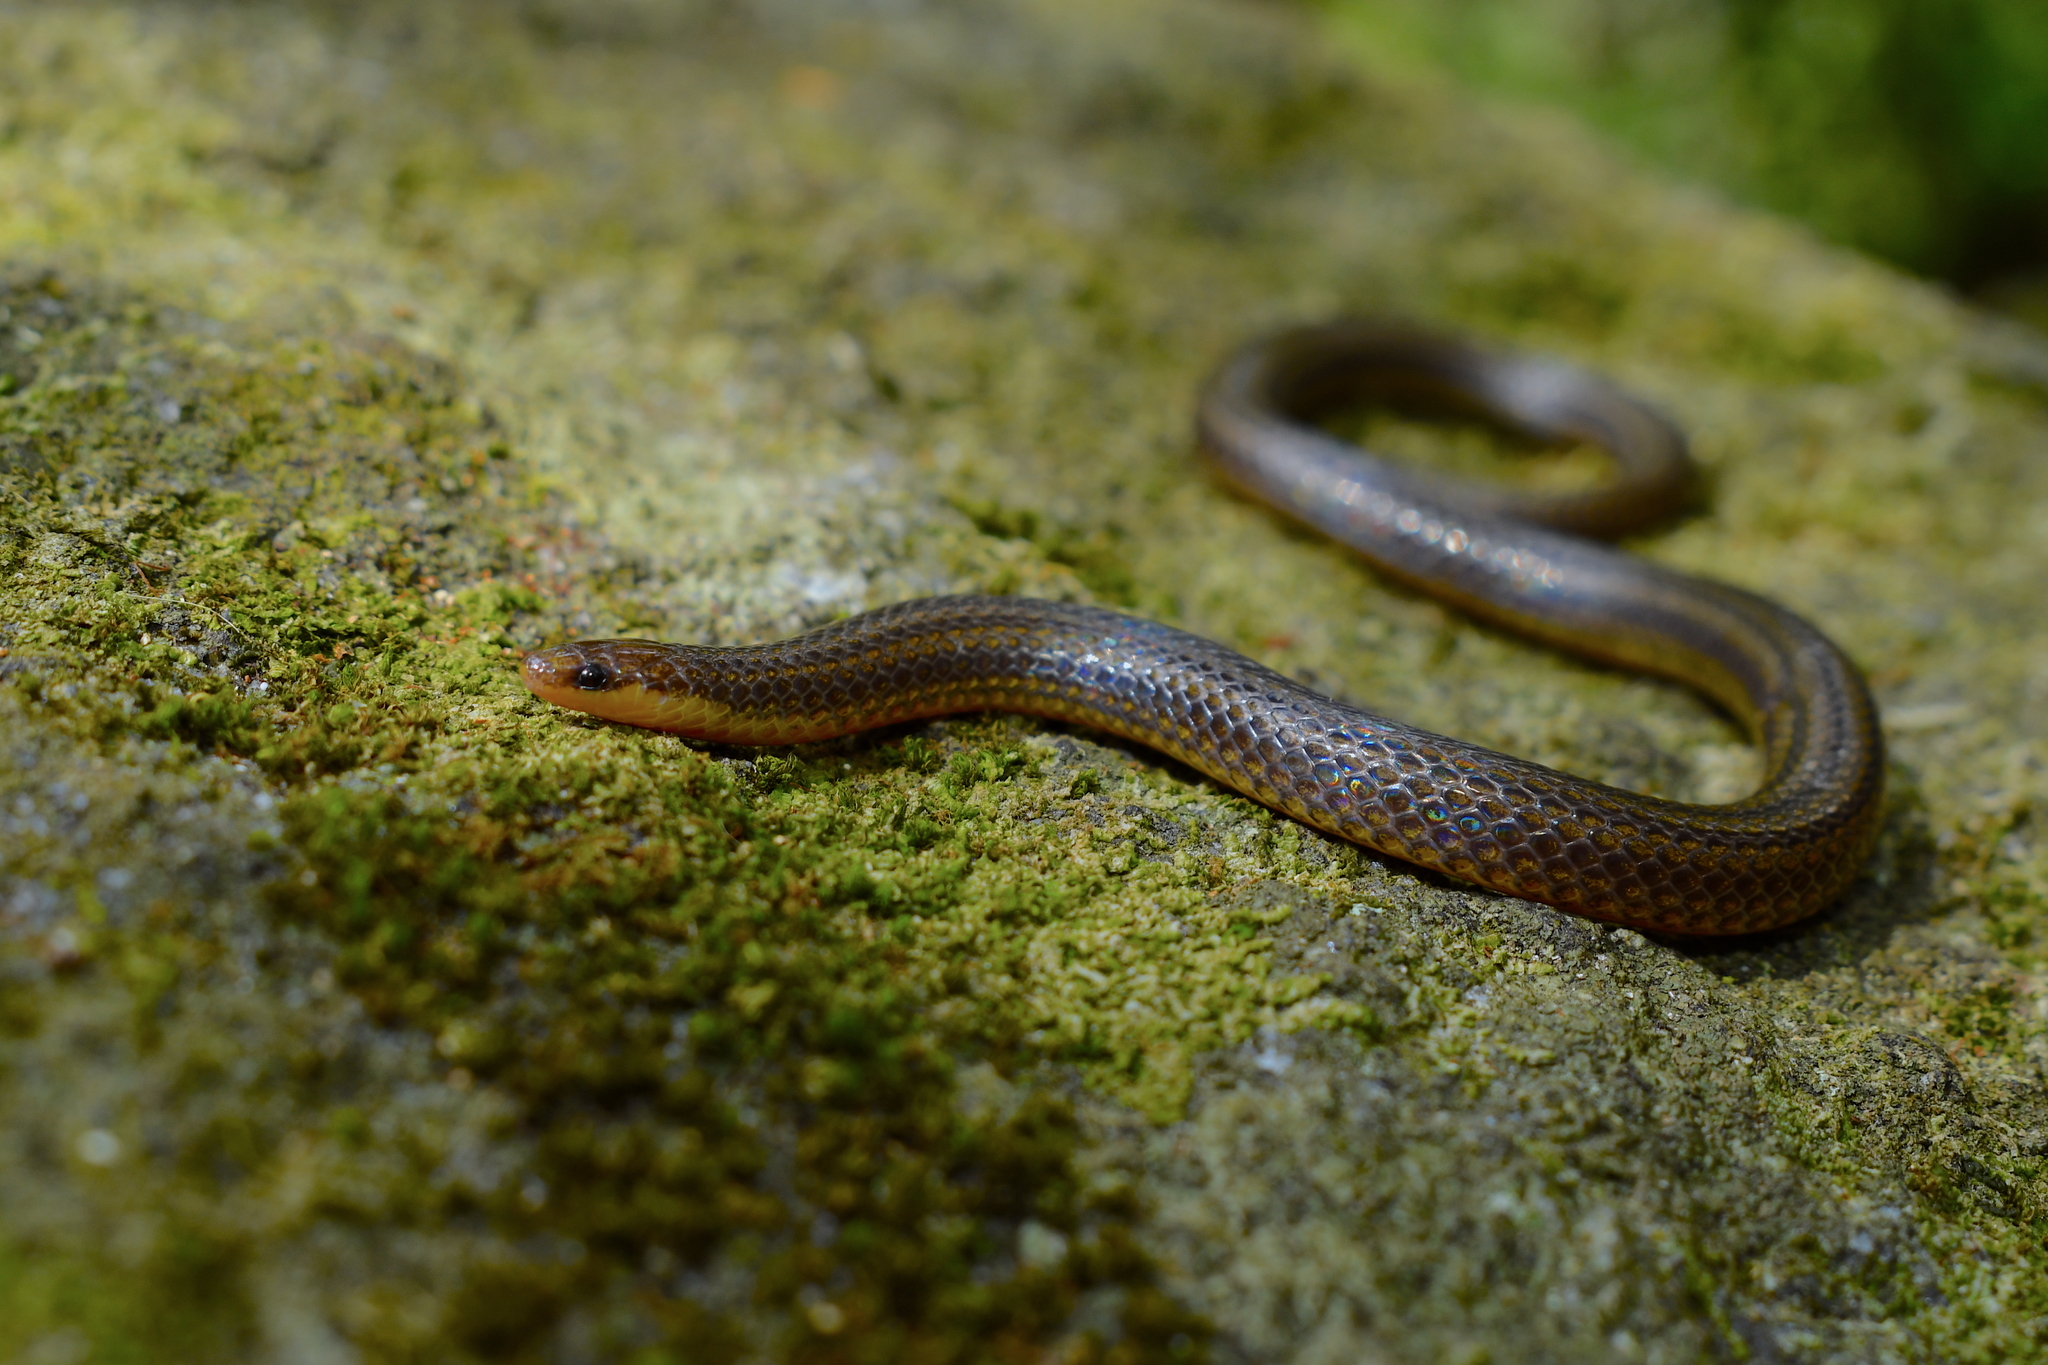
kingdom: Animalia
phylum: Chordata
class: Squamata
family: Colubridae
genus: Adelphicos
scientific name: Adelphicos quadrivirgatum
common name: Middle american burrowing snake
